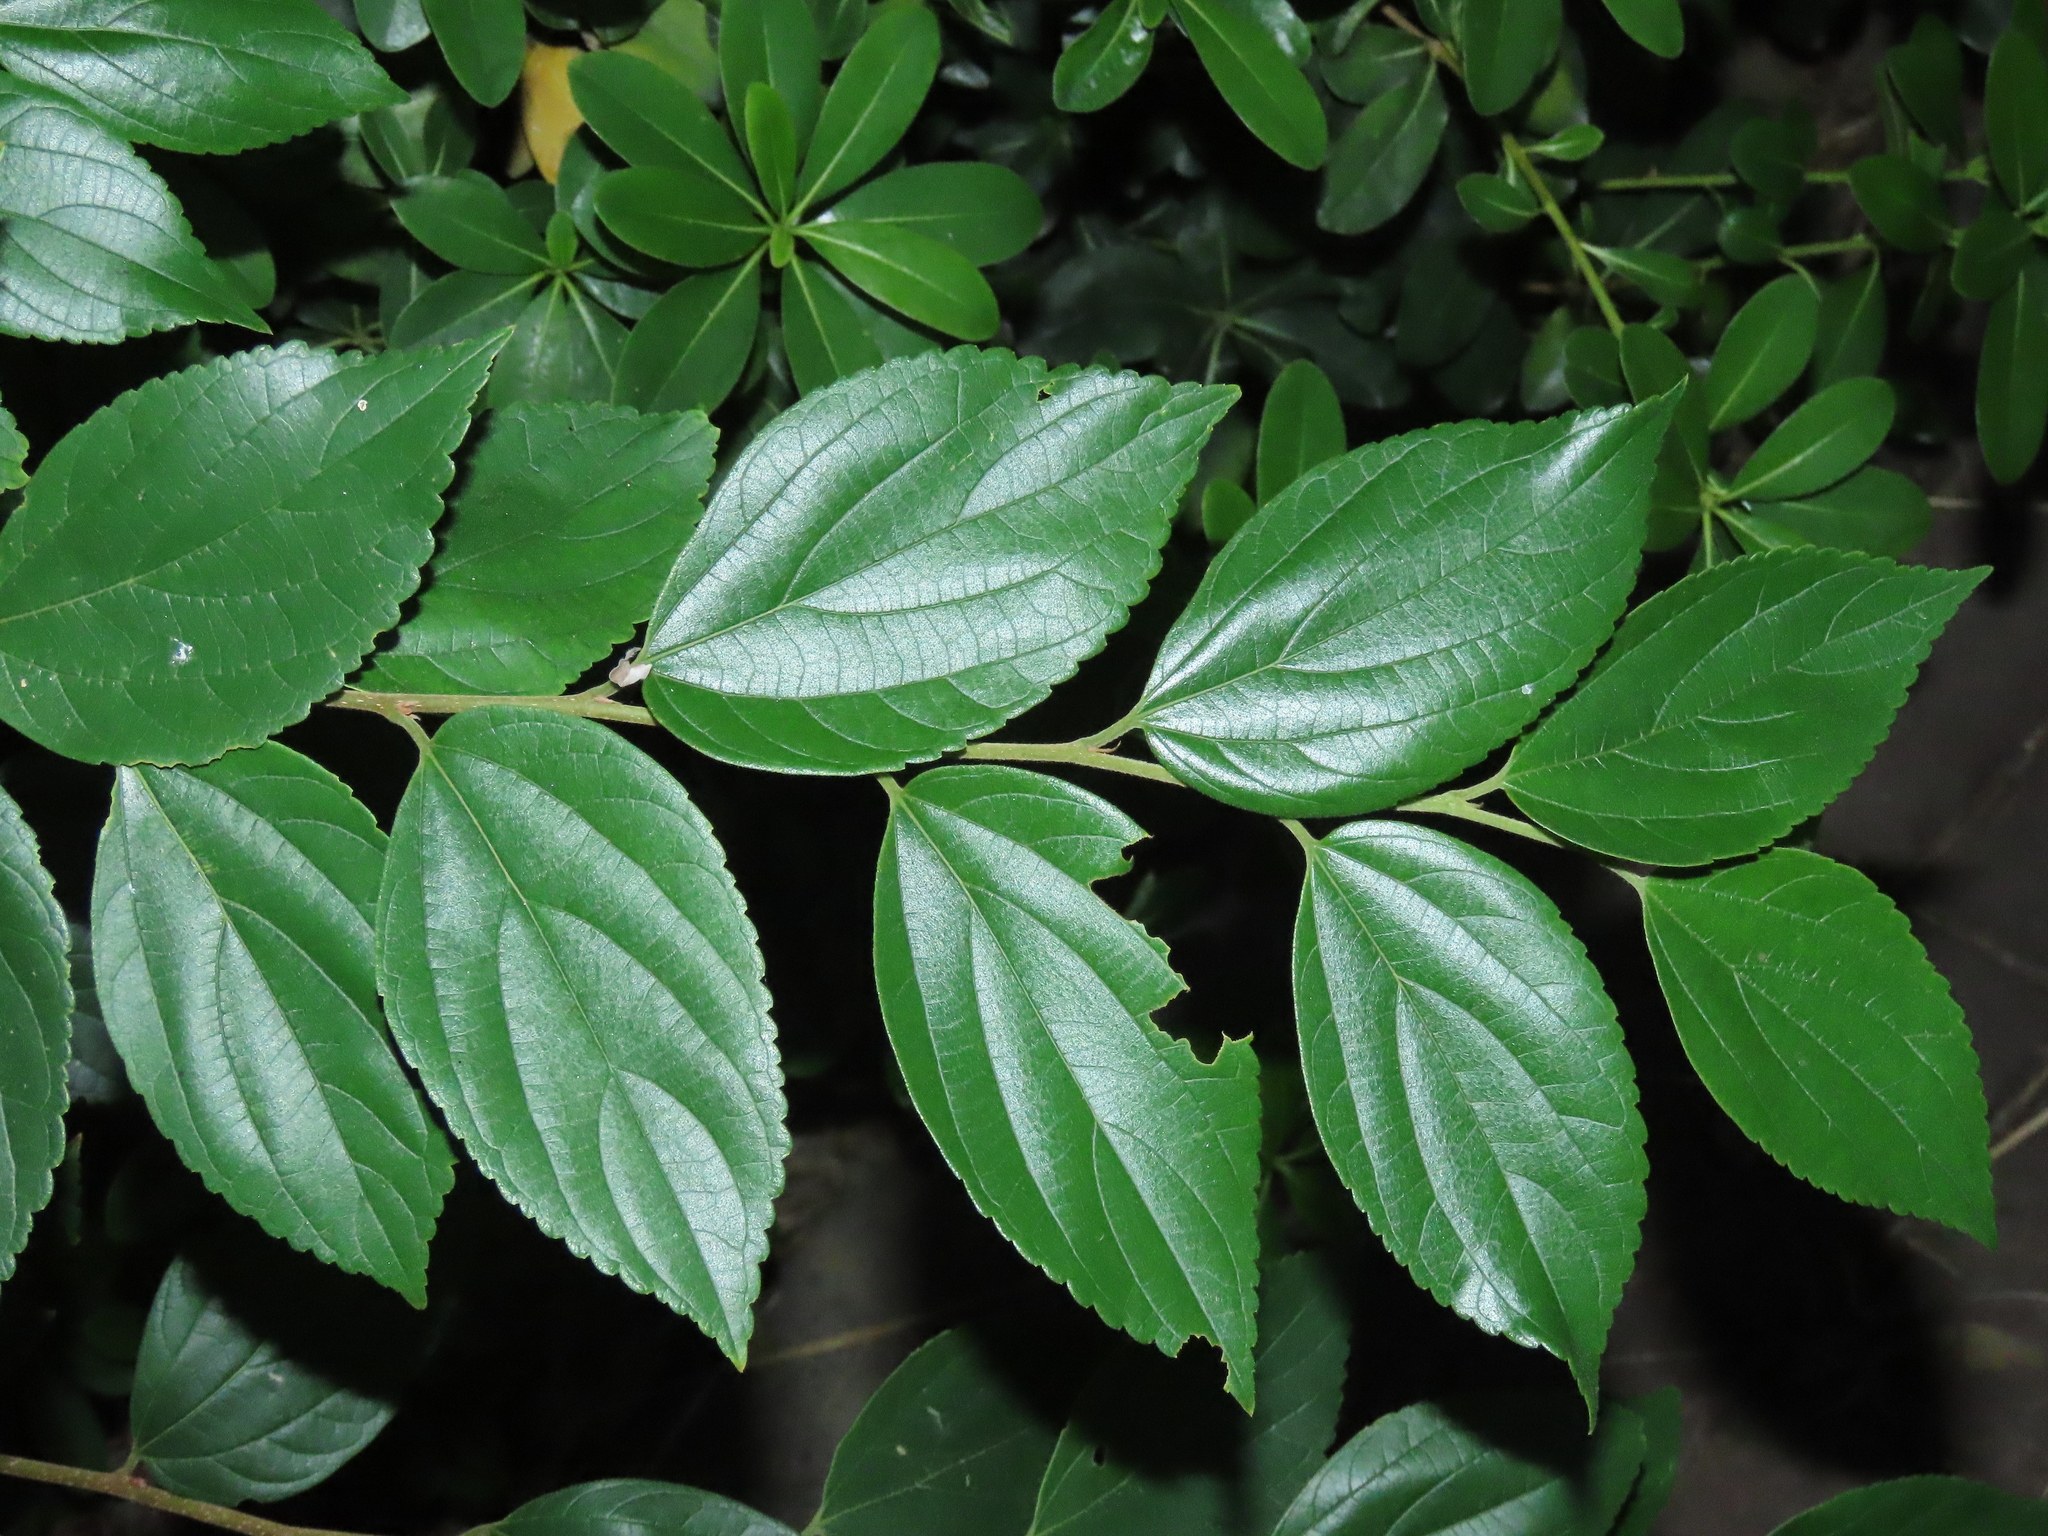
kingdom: Plantae
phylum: Tracheophyta
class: Magnoliopsida
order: Rosales
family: Cannabaceae
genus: Celtis
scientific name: Celtis sinensis
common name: Chinese hackberry
